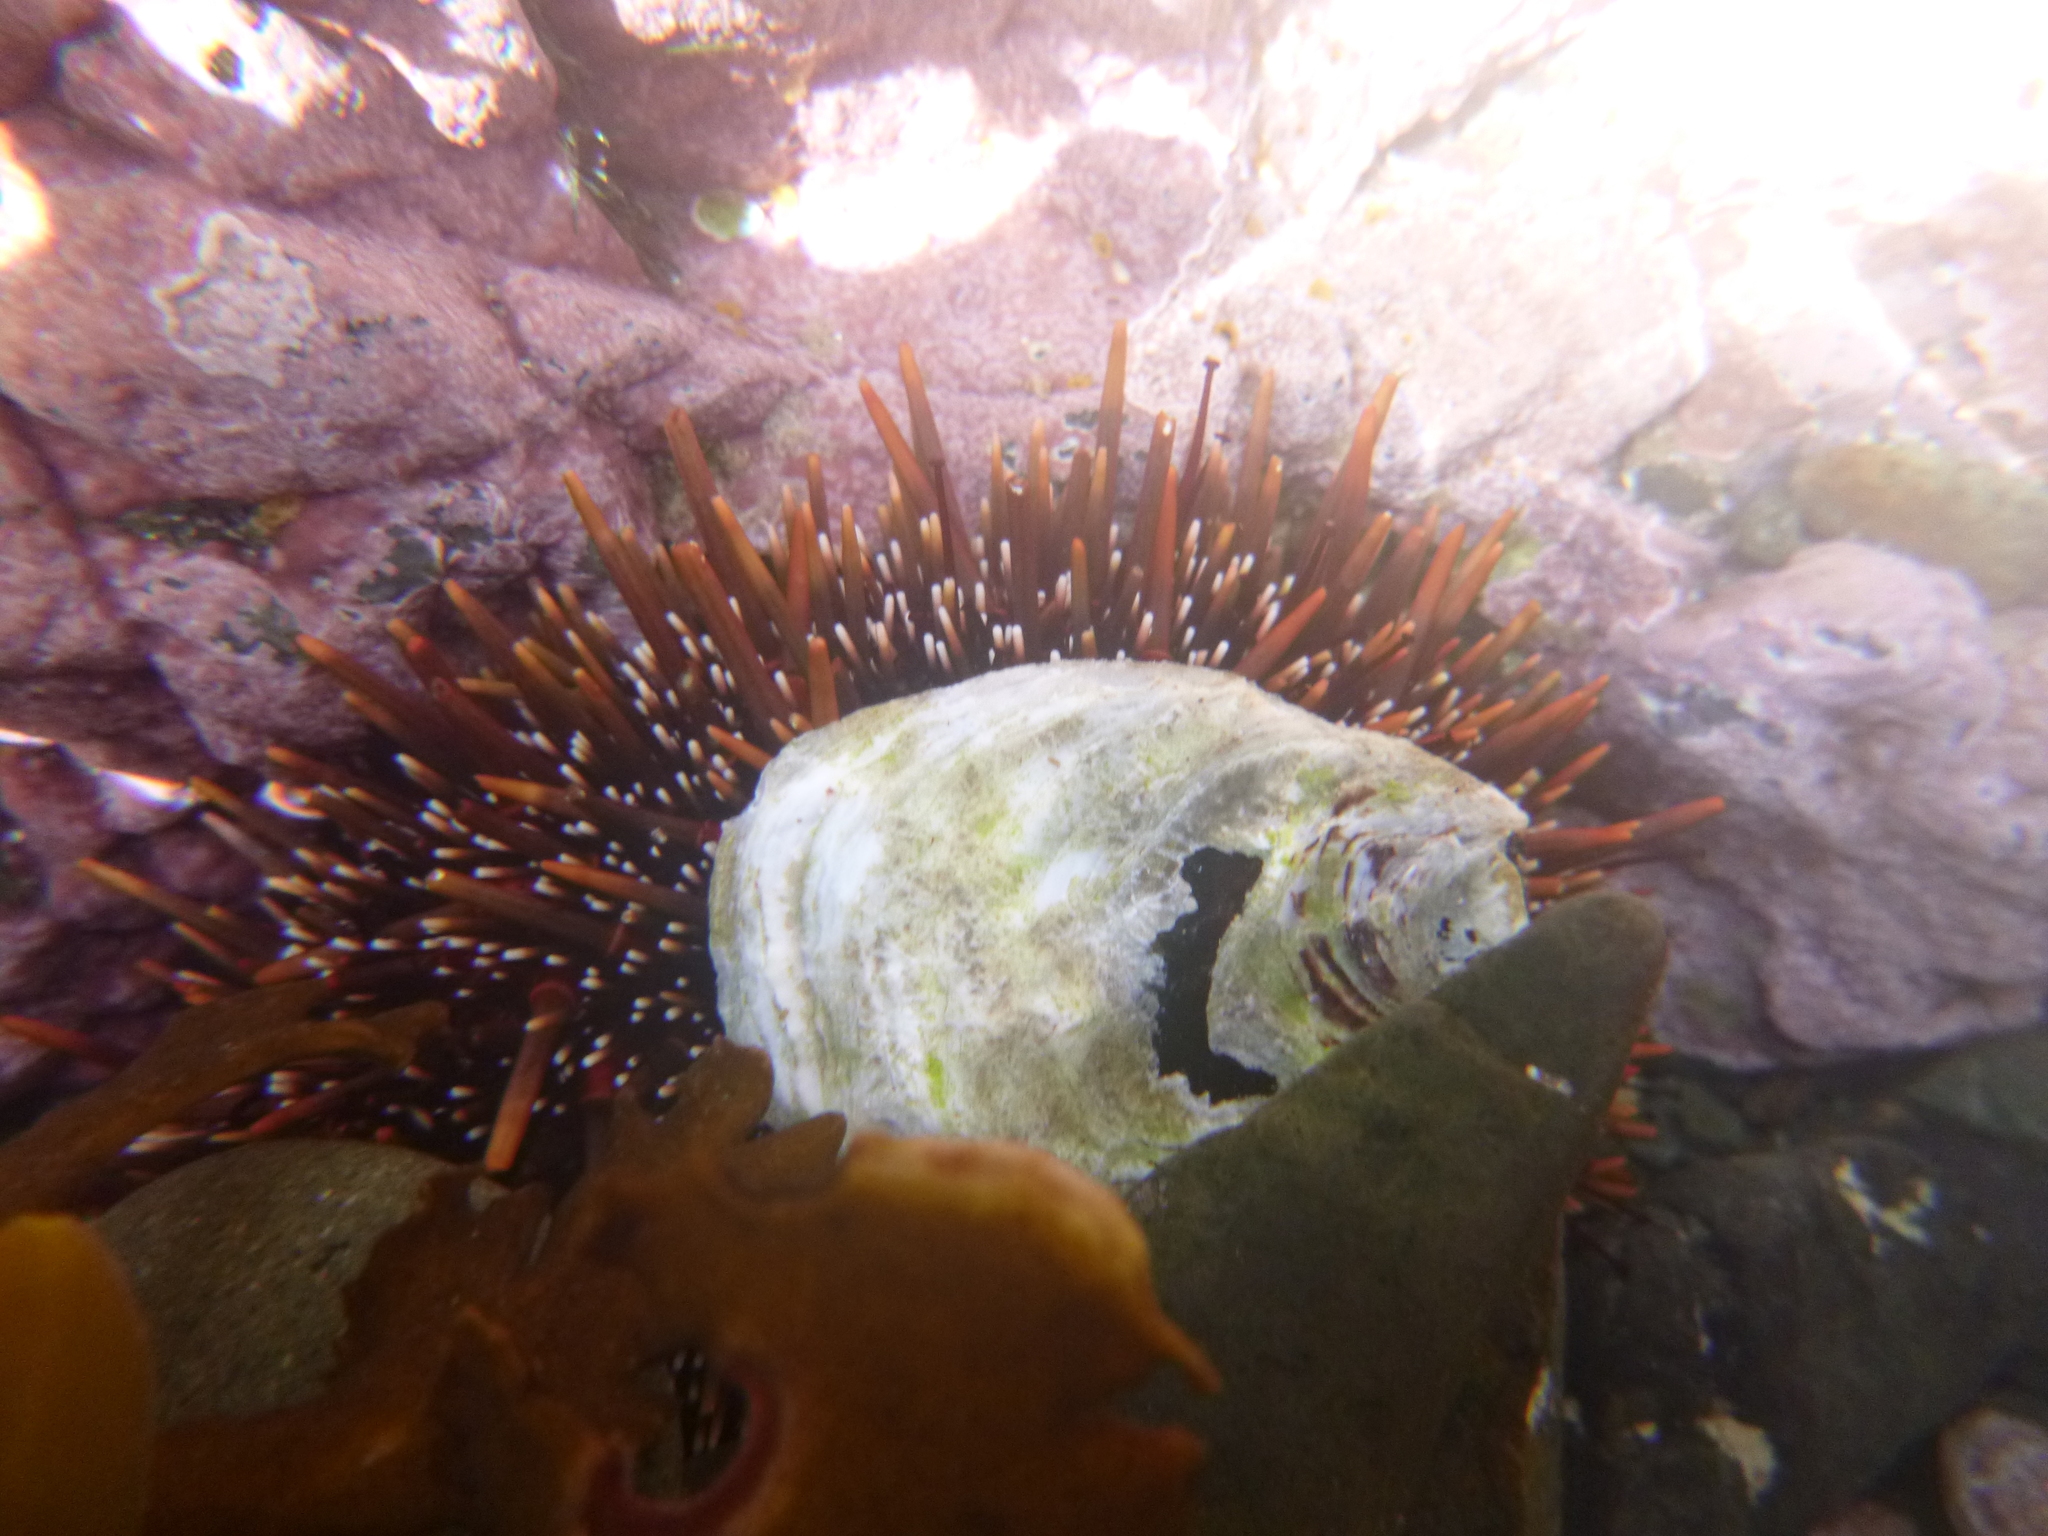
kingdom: Animalia
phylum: Echinodermata
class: Echinoidea
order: Camarodonta
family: Echinometridae
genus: Evechinus
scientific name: Evechinus chloroticus
